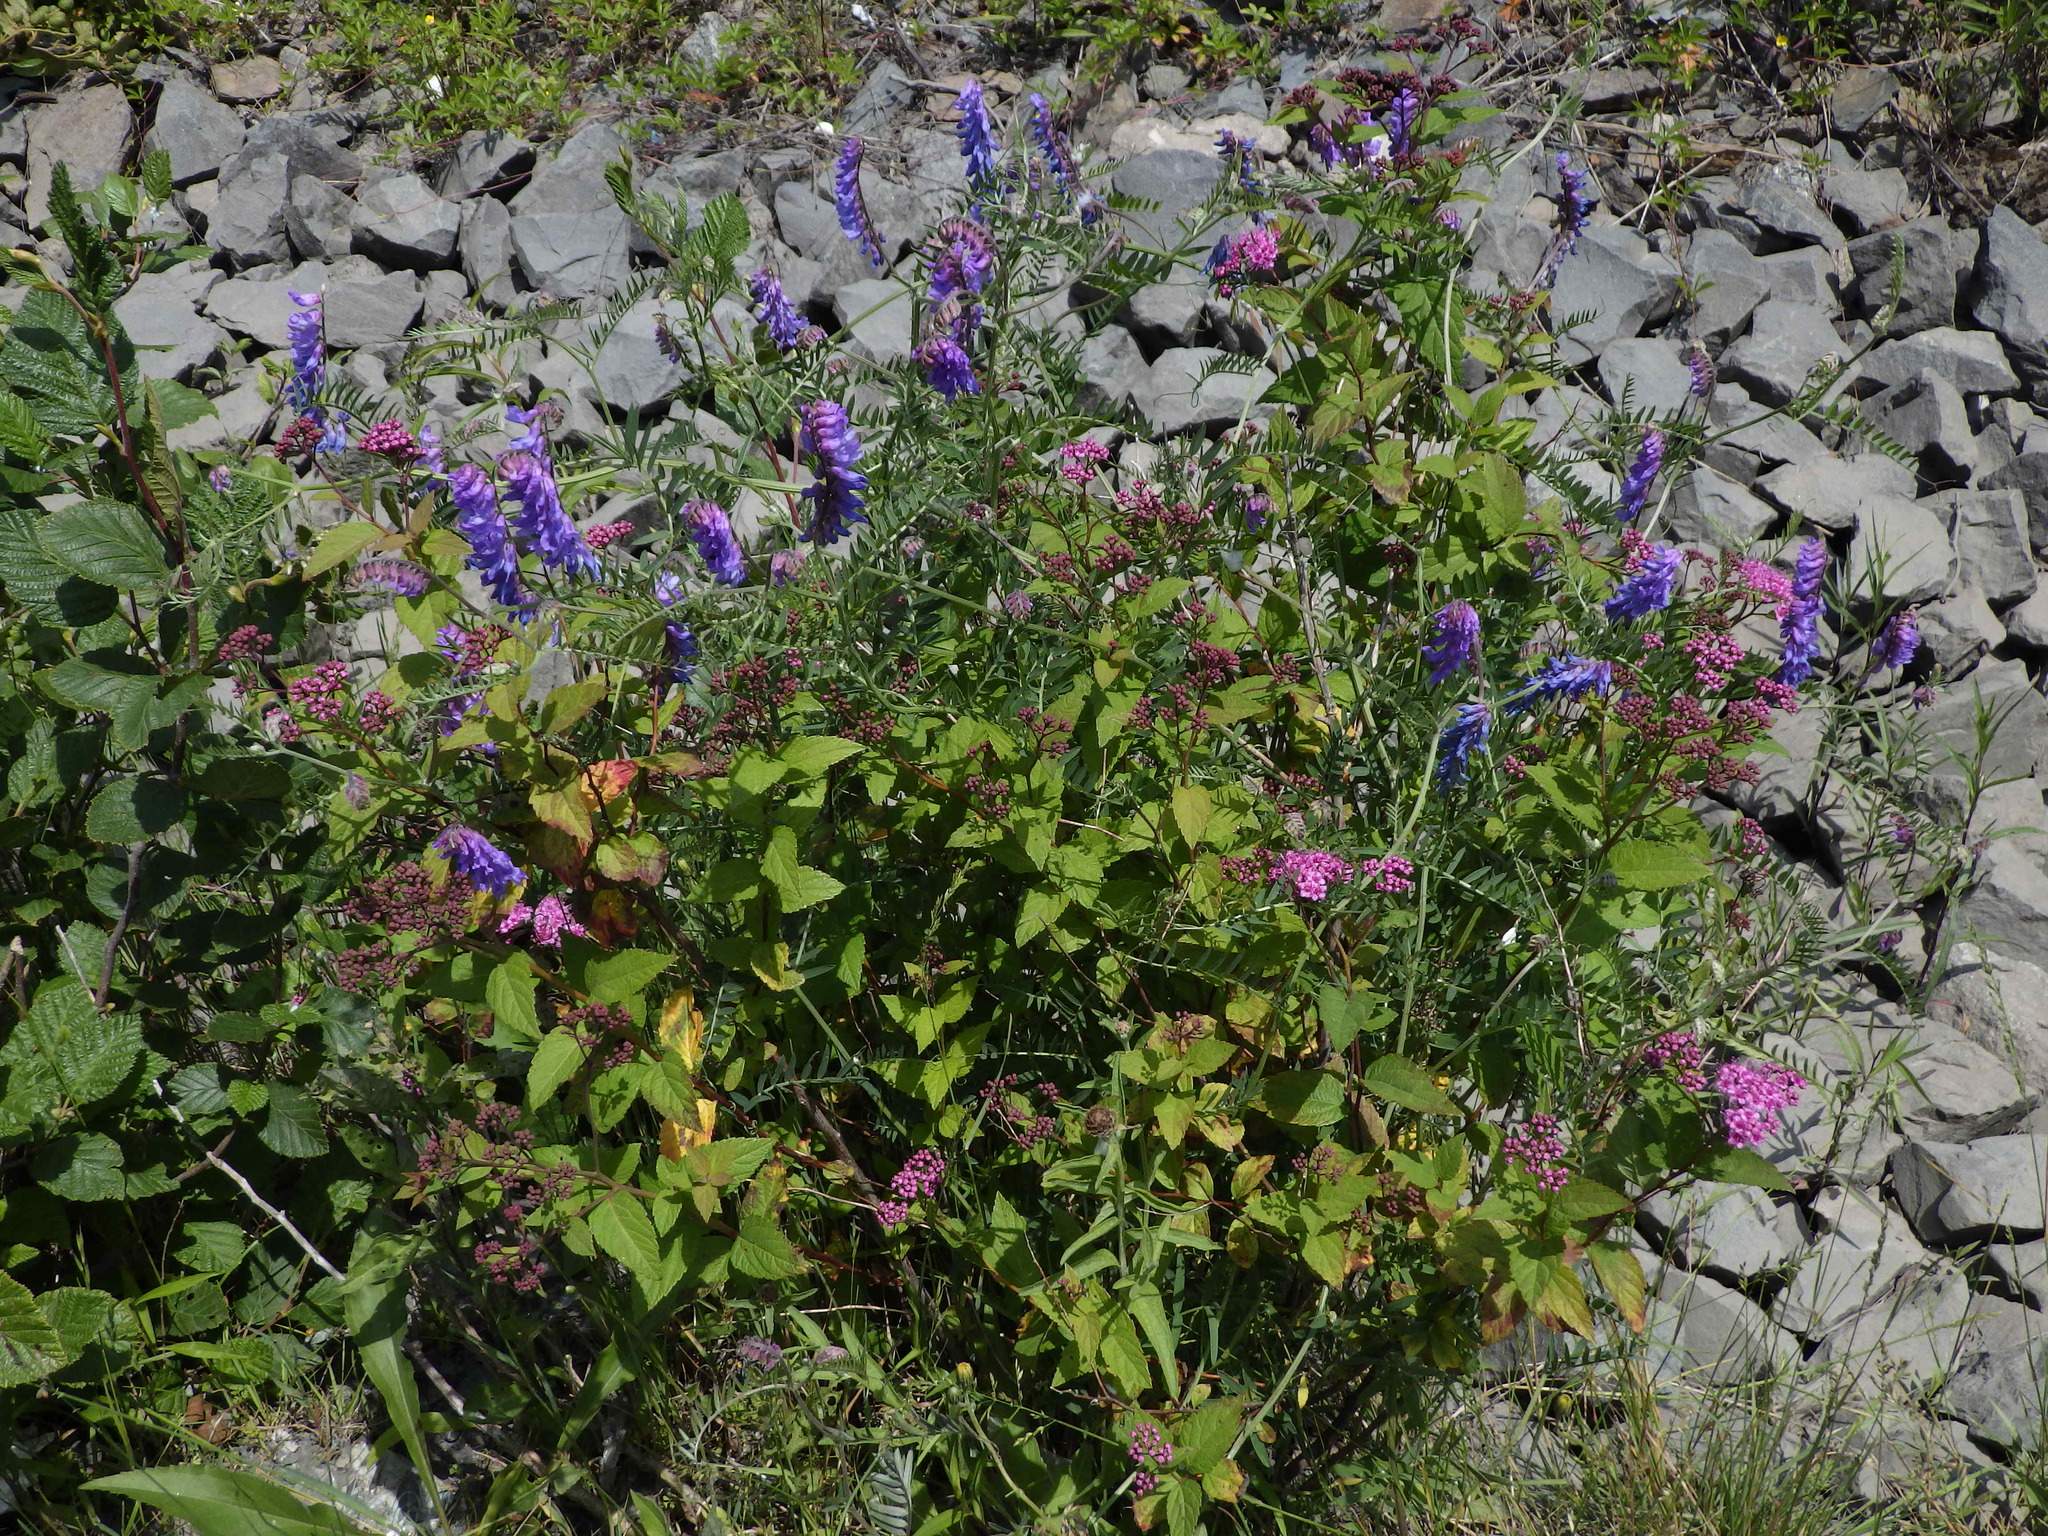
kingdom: Plantae
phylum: Tracheophyta
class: Magnoliopsida
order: Fabales
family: Fabaceae
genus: Vicia
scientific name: Vicia cracca
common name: Bird vetch
